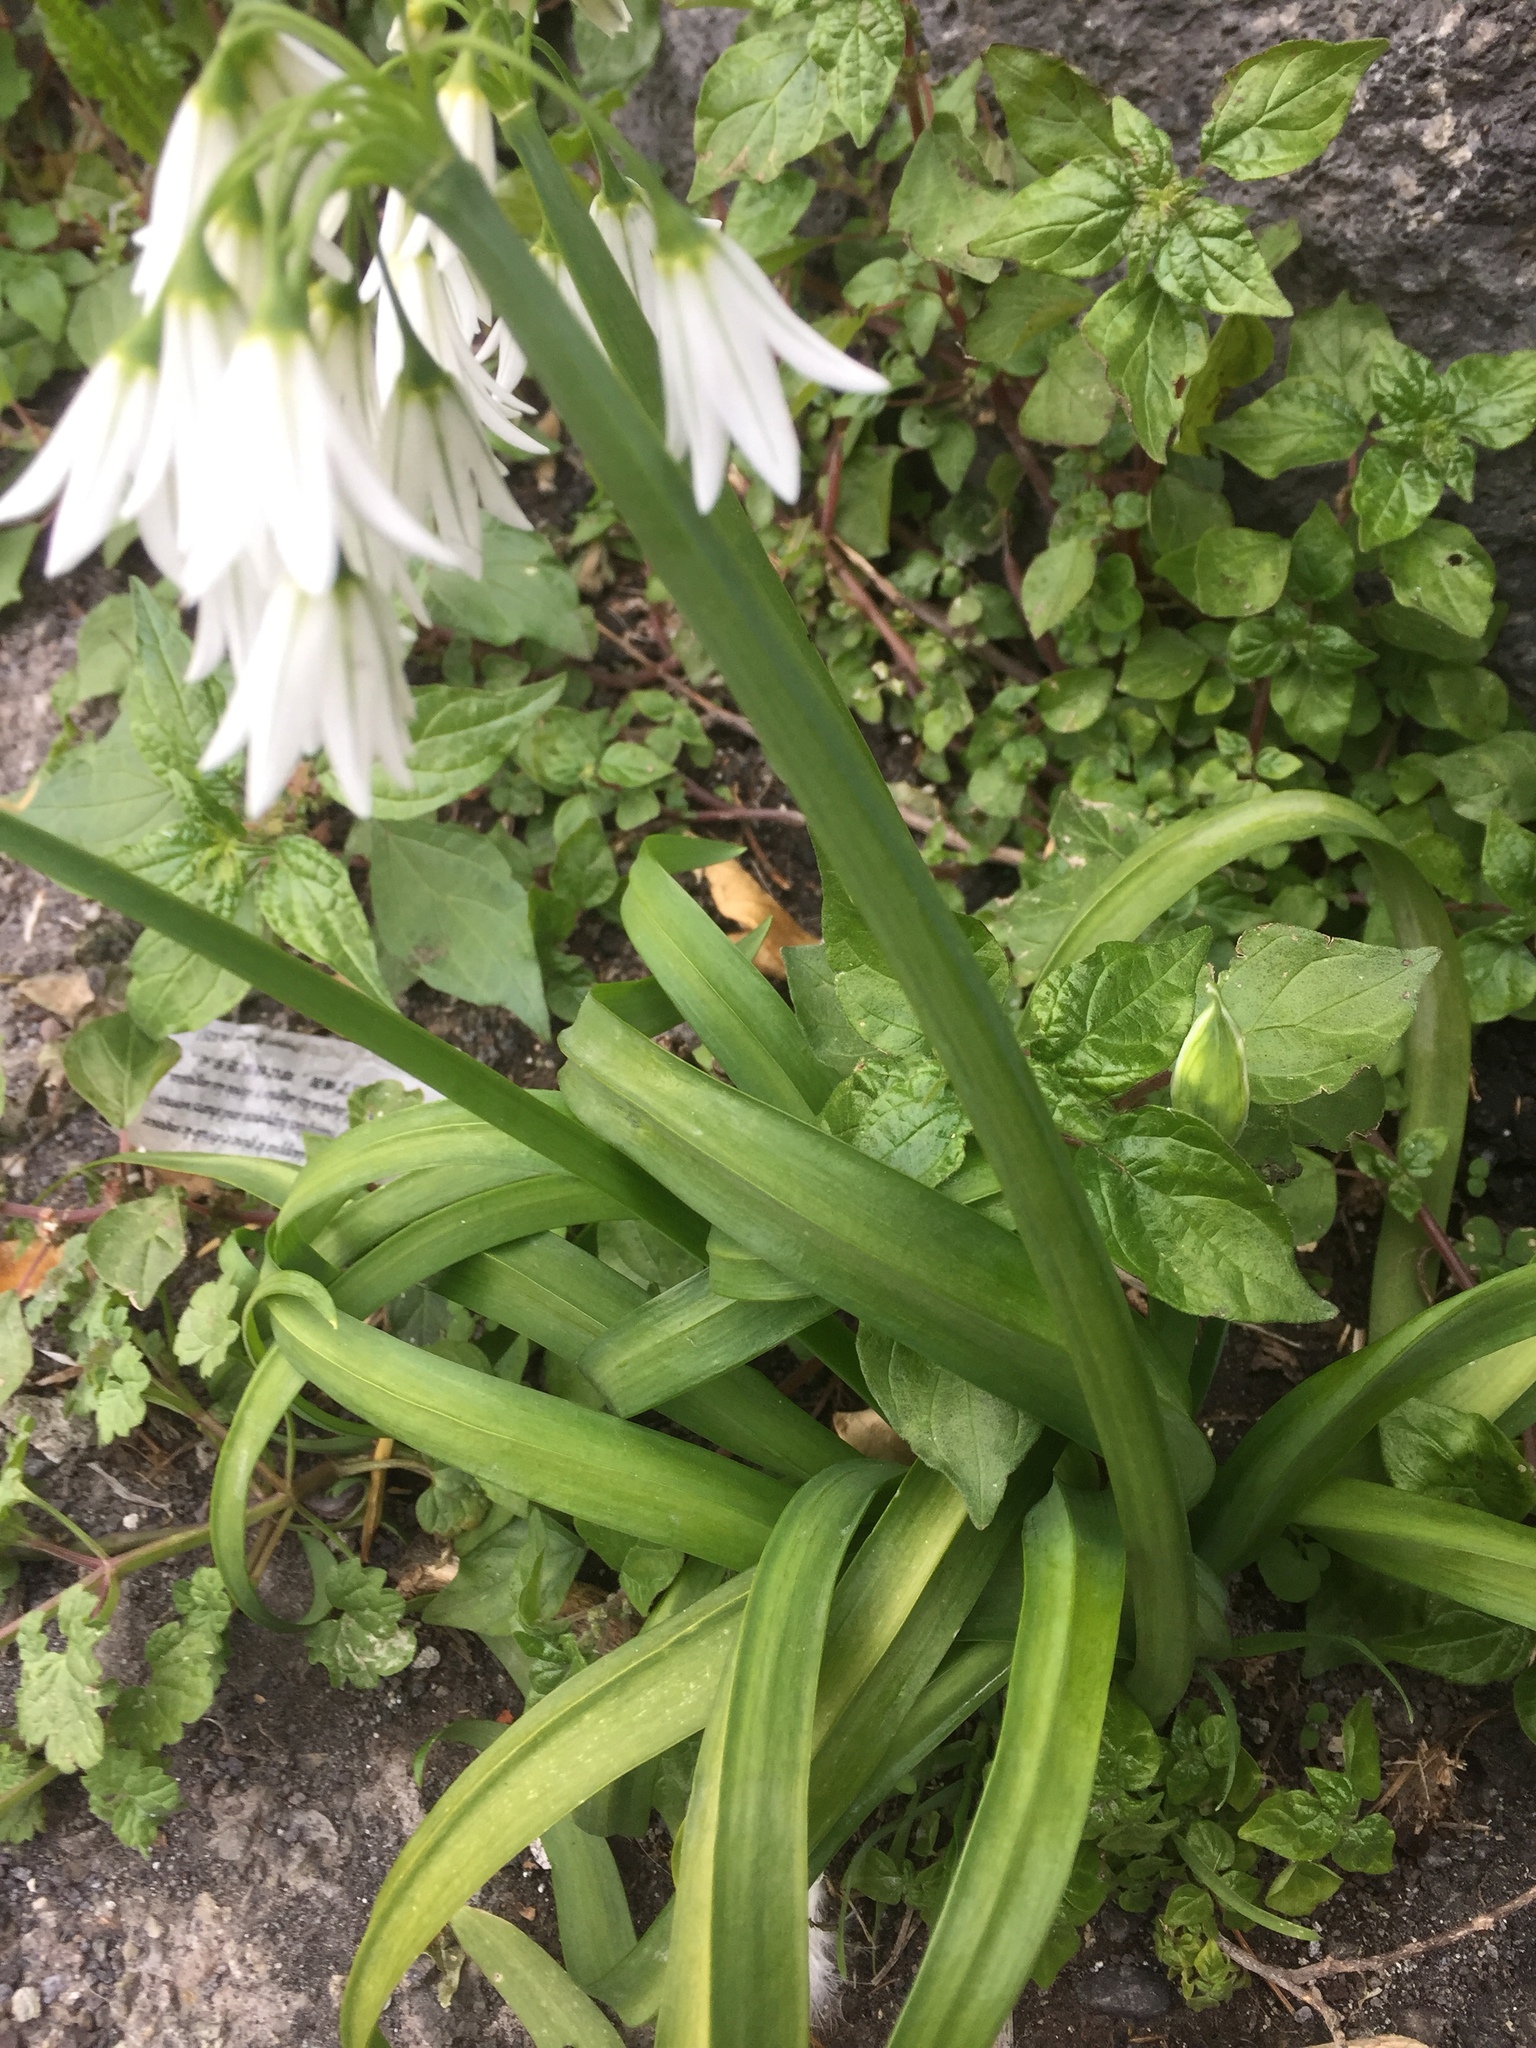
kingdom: Plantae
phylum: Tracheophyta
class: Liliopsida
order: Asparagales
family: Amaryllidaceae
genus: Allium
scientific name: Allium triquetrum
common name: Three-cornered garlic
